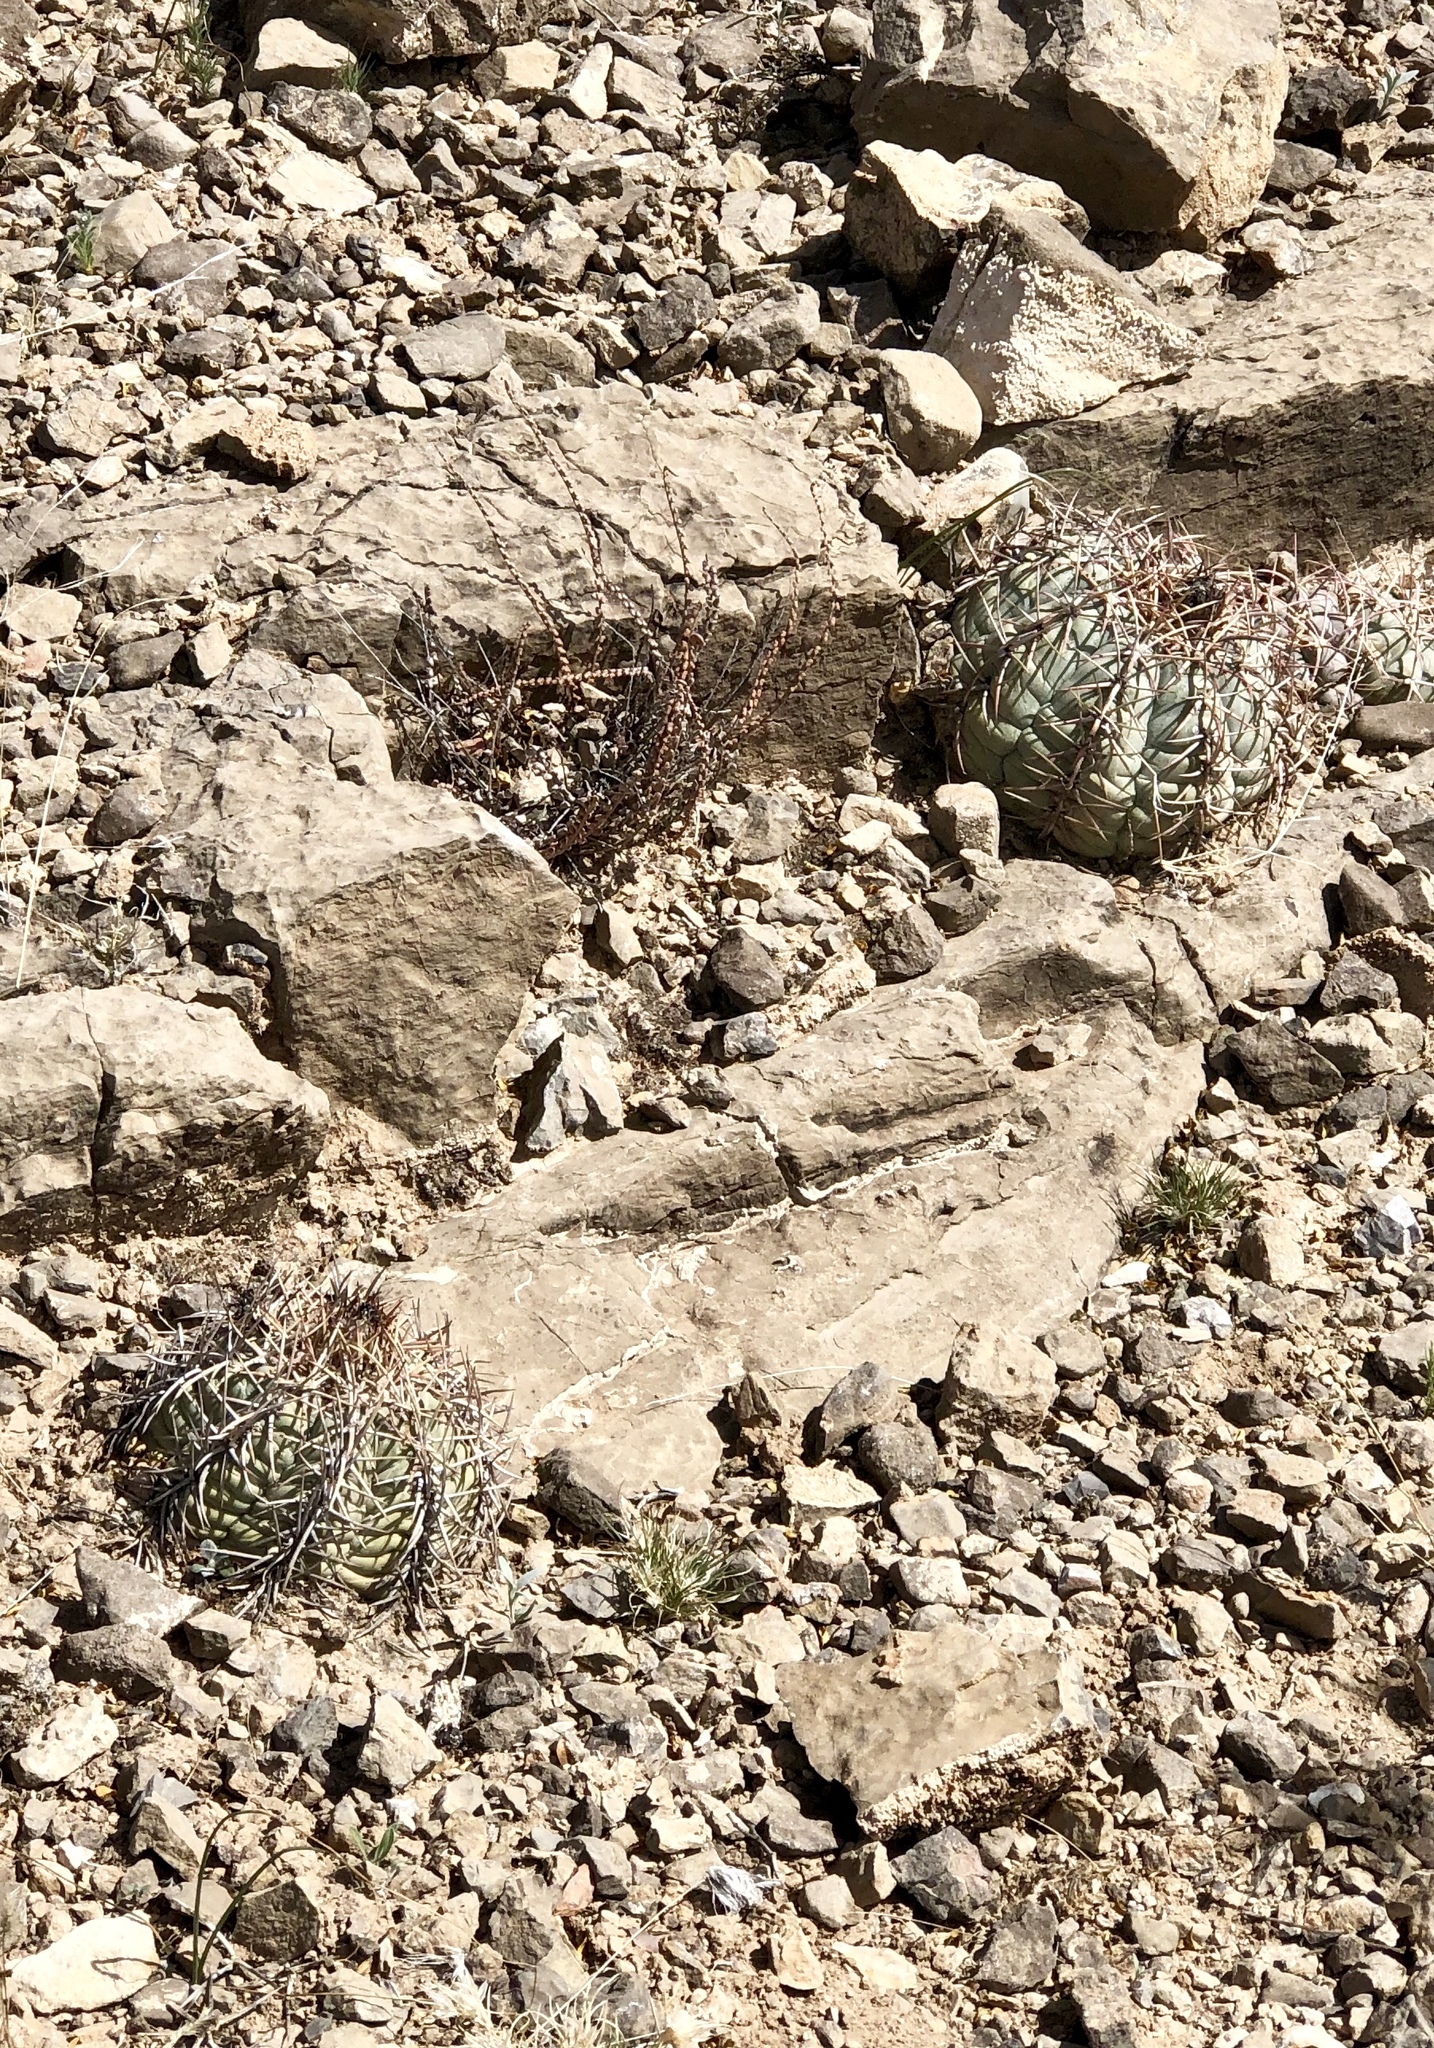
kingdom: Plantae
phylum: Tracheophyta
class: Magnoliopsida
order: Caryophyllales
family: Cactaceae
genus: Echinocactus
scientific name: Echinocactus horizonthalonius
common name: Devilshead
